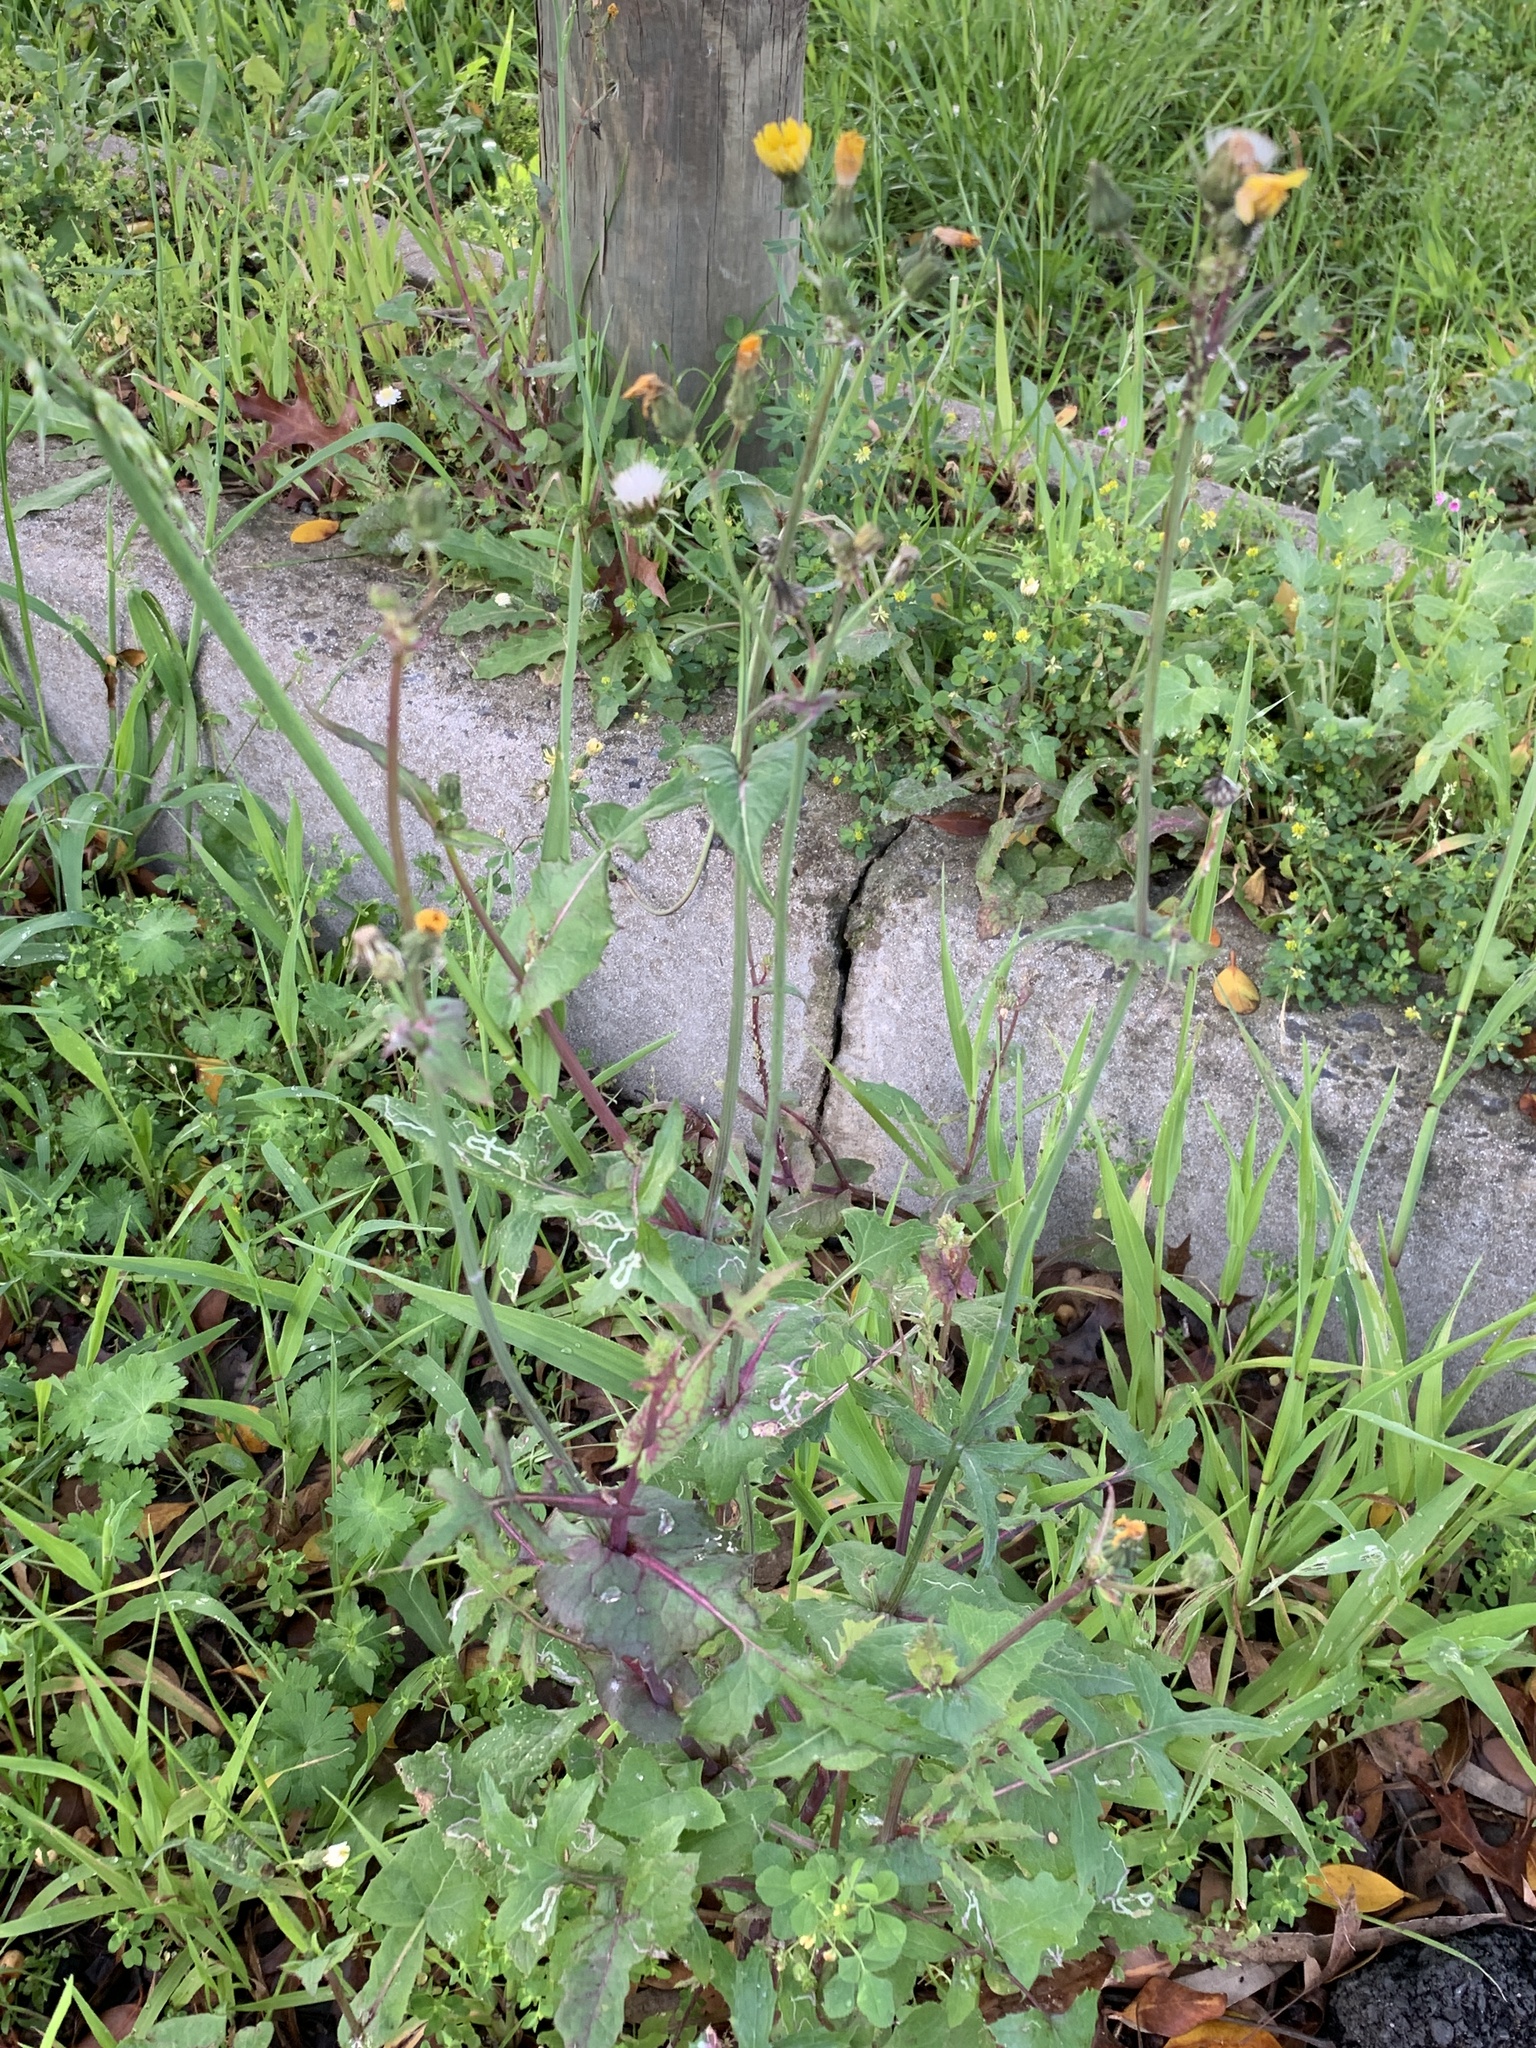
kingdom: Plantae
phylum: Tracheophyta
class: Magnoliopsida
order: Asterales
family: Asteraceae
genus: Sonchus
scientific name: Sonchus oleraceus
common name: Common sowthistle
